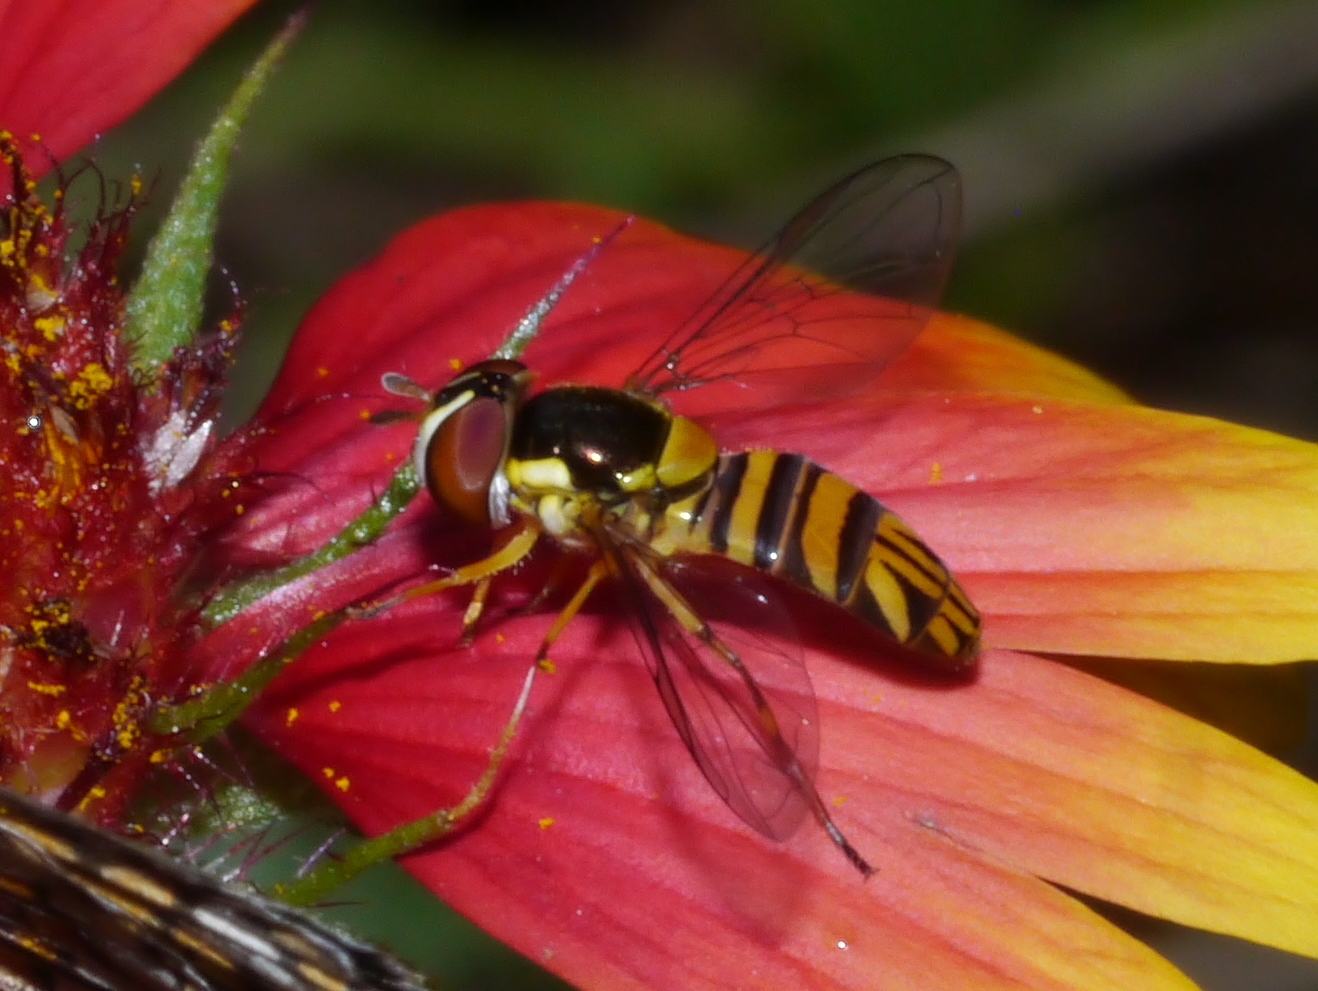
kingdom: Animalia
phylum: Arthropoda
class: Insecta
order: Diptera
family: Syrphidae
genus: Allograpta
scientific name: Allograpta obliqua
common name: Common oblique syrphid
